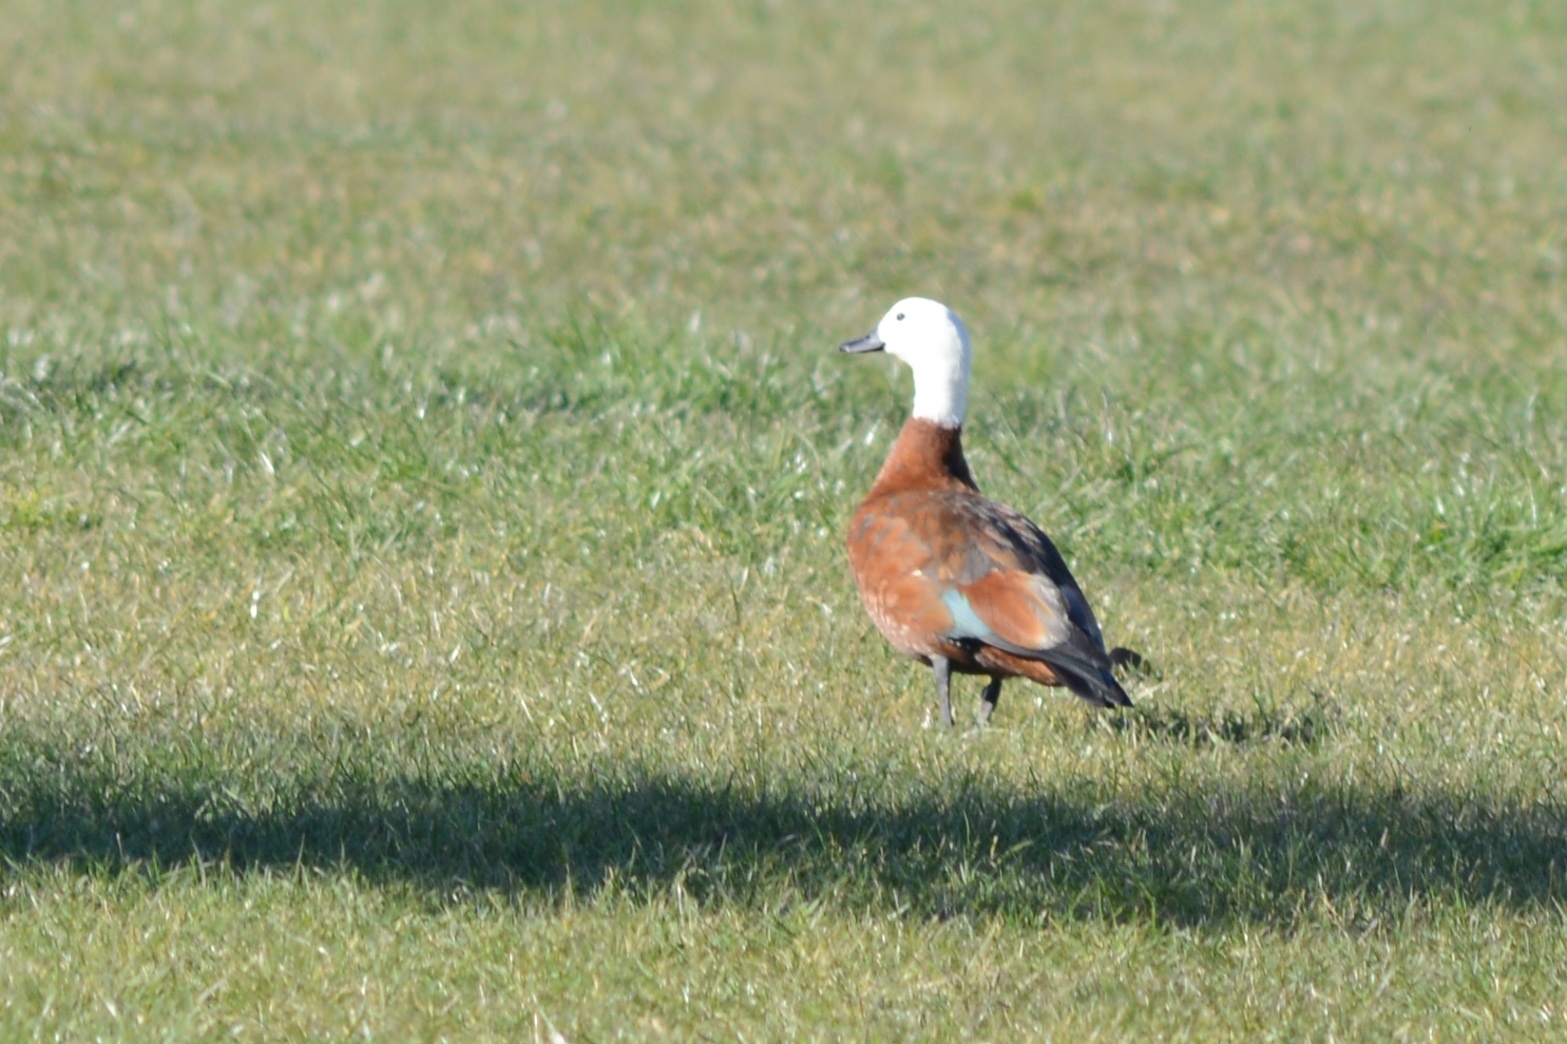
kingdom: Animalia
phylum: Chordata
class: Aves
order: Anseriformes
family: Anatidae
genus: Tadorna
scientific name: Tadorna variegata
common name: Paradise shelduck
